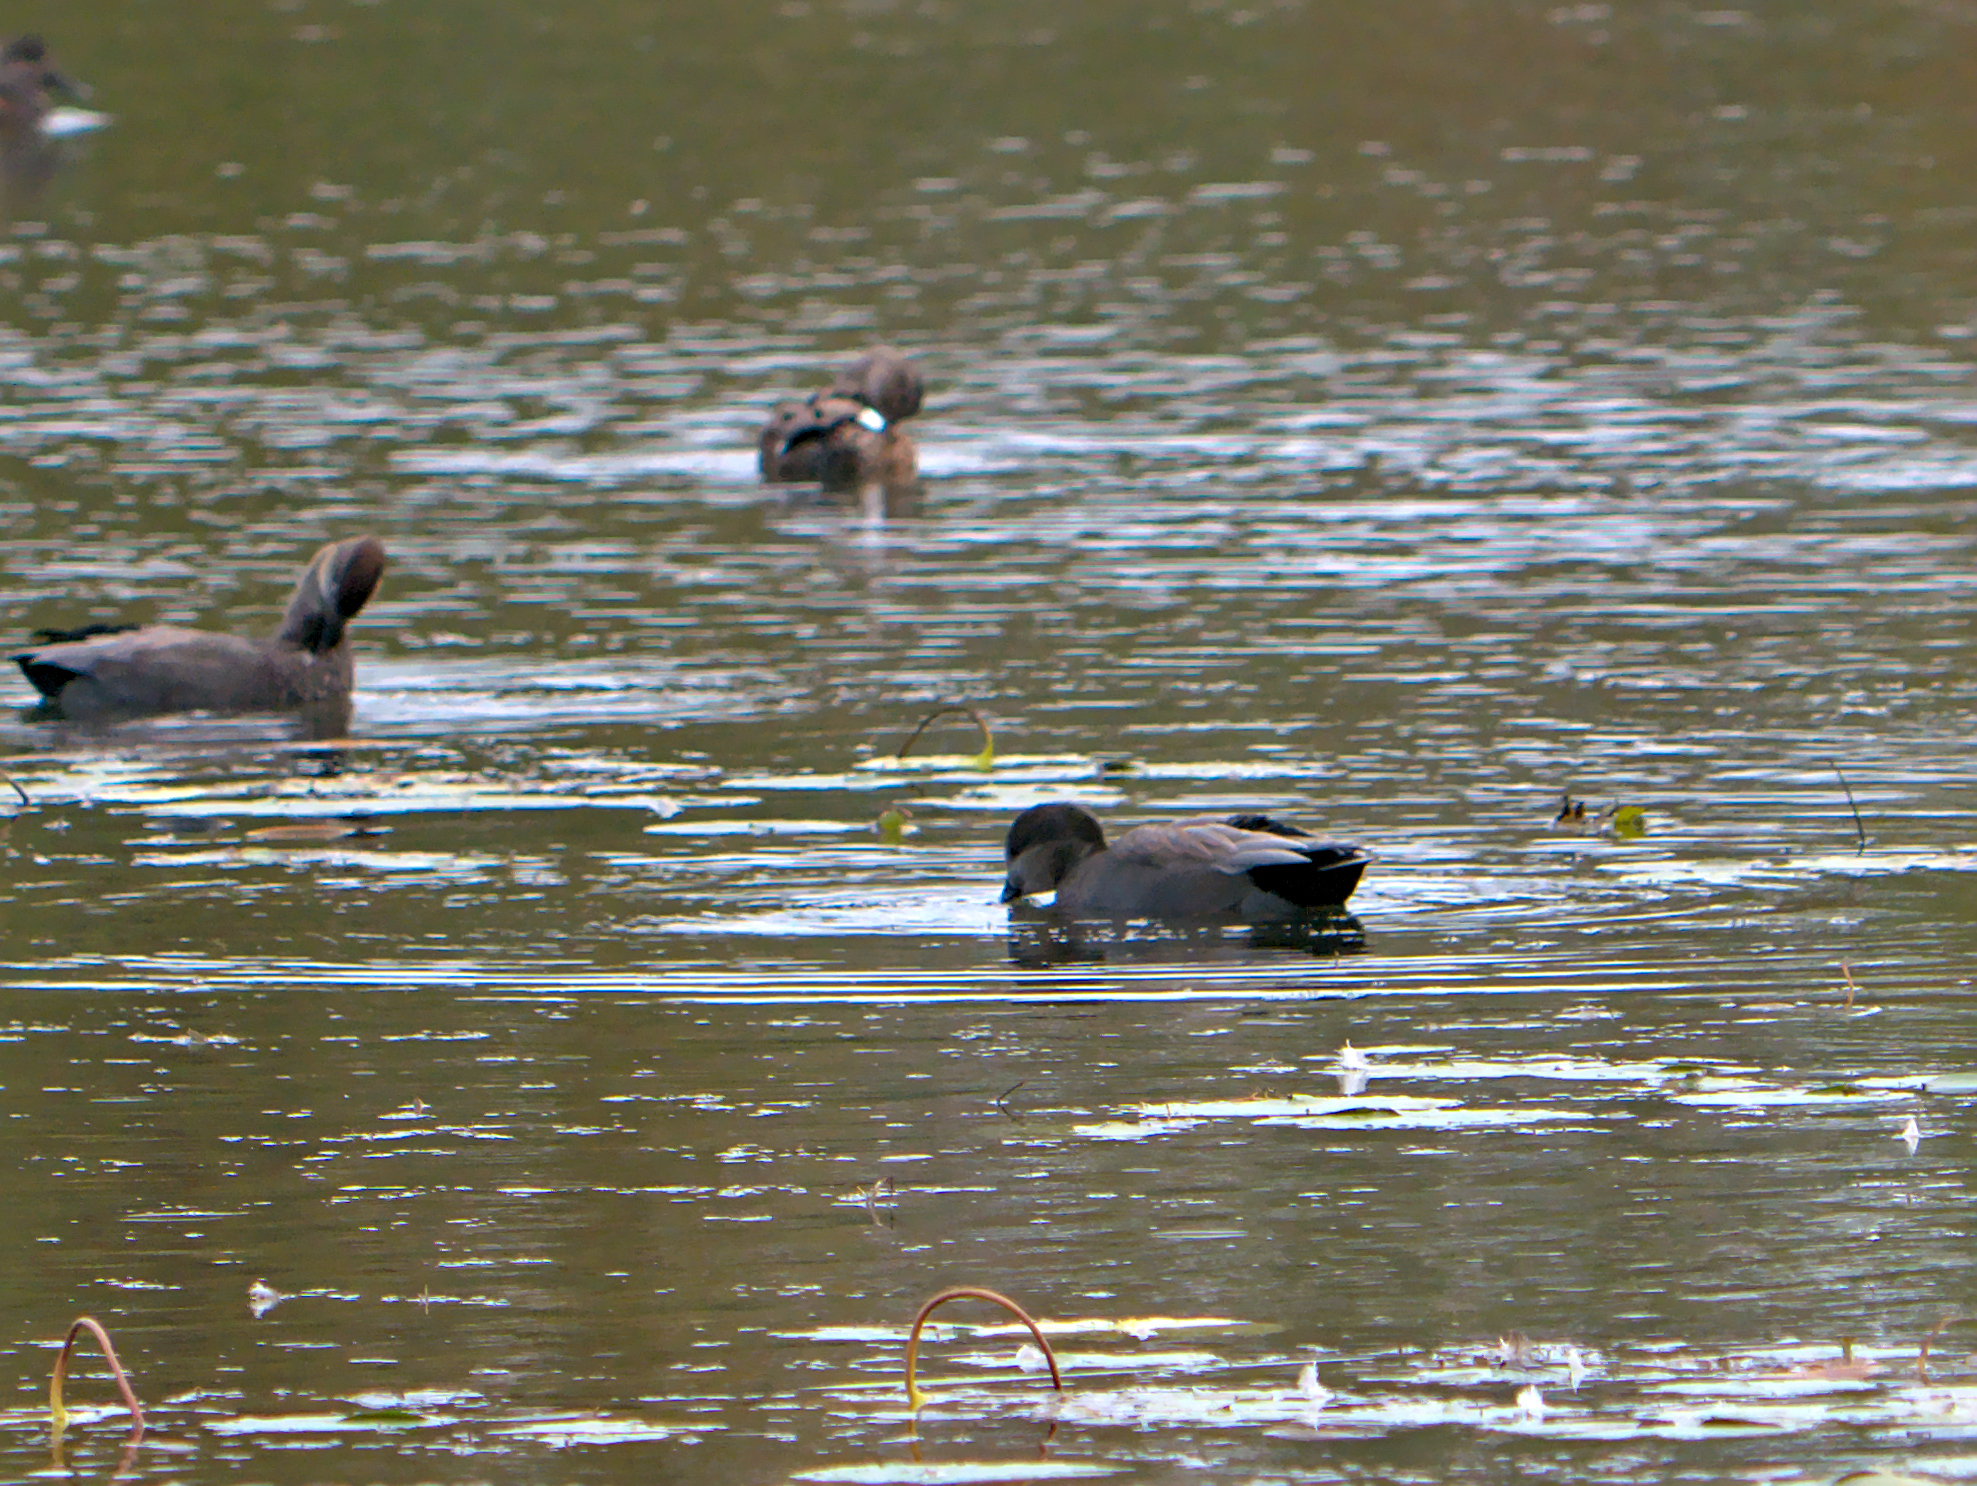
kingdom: Animalia
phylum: Chordata
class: Aves
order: Anseriformes
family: Anatidae
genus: Mareca
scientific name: Mareca strepera
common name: Gadwall
